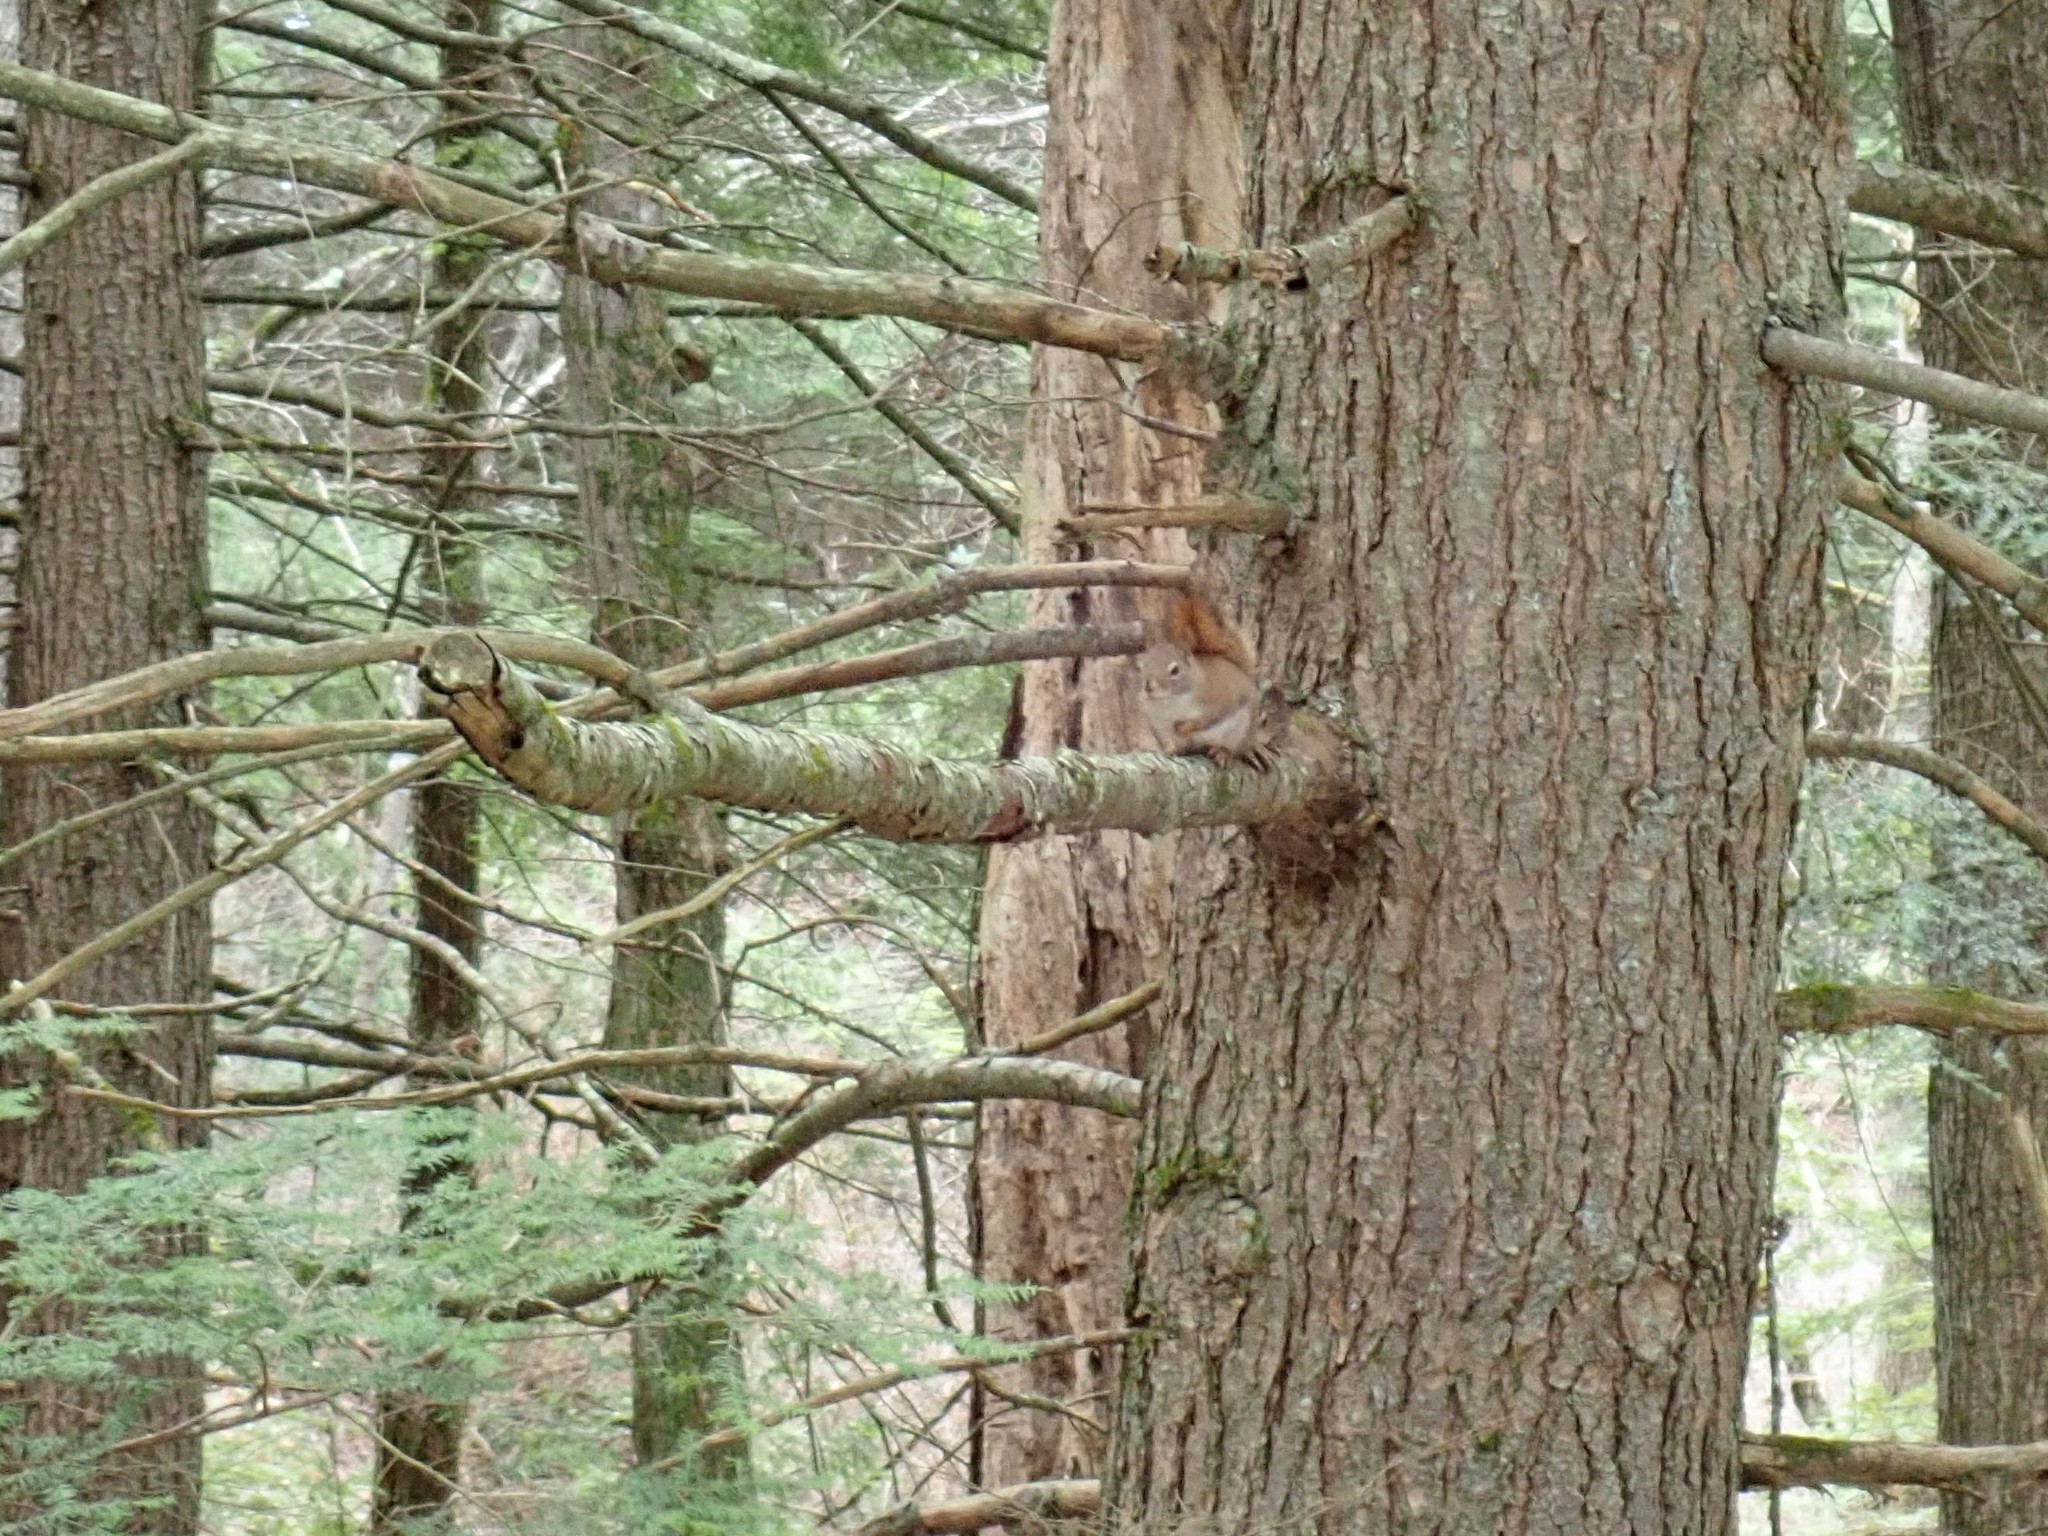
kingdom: Animalia
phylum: Chordata
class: Mammalia
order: Rodentia
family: Sciuridae
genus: Tamiasciurus
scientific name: Tamiasciurus hudsonicus
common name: Red squirrel
